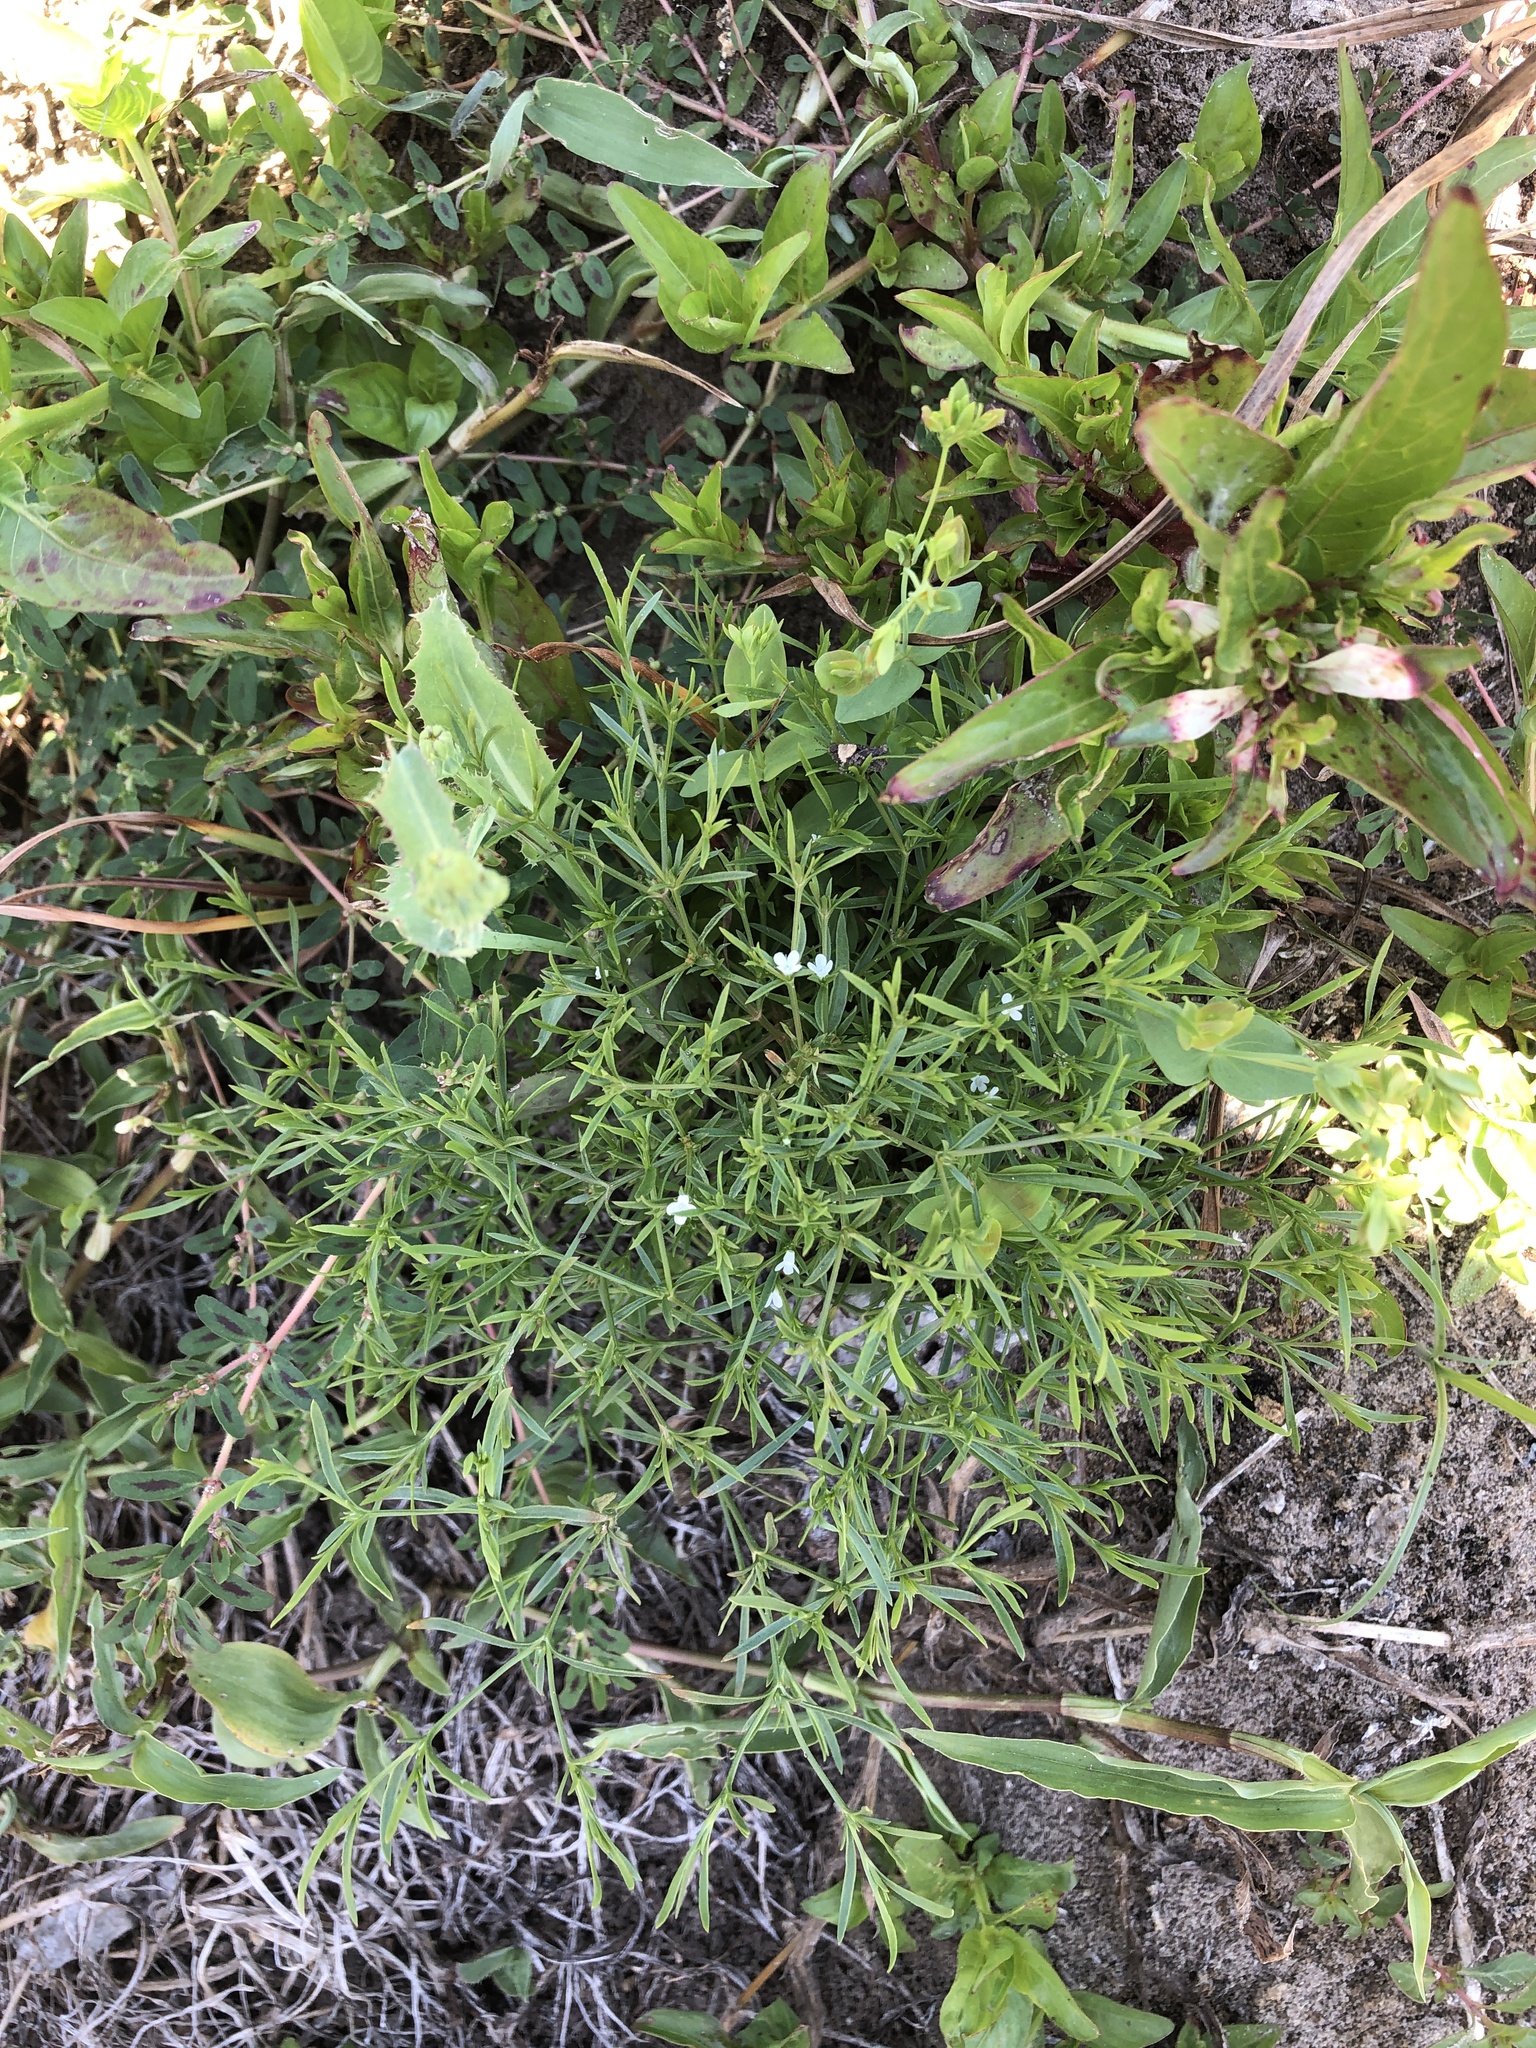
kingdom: Plantae
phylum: Tracheophyta
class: Magnoliopsida
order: Lamiales
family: Tetrachondraceae
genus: Polypremum
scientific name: Polypremum procumbens
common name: Juniper-leaf
